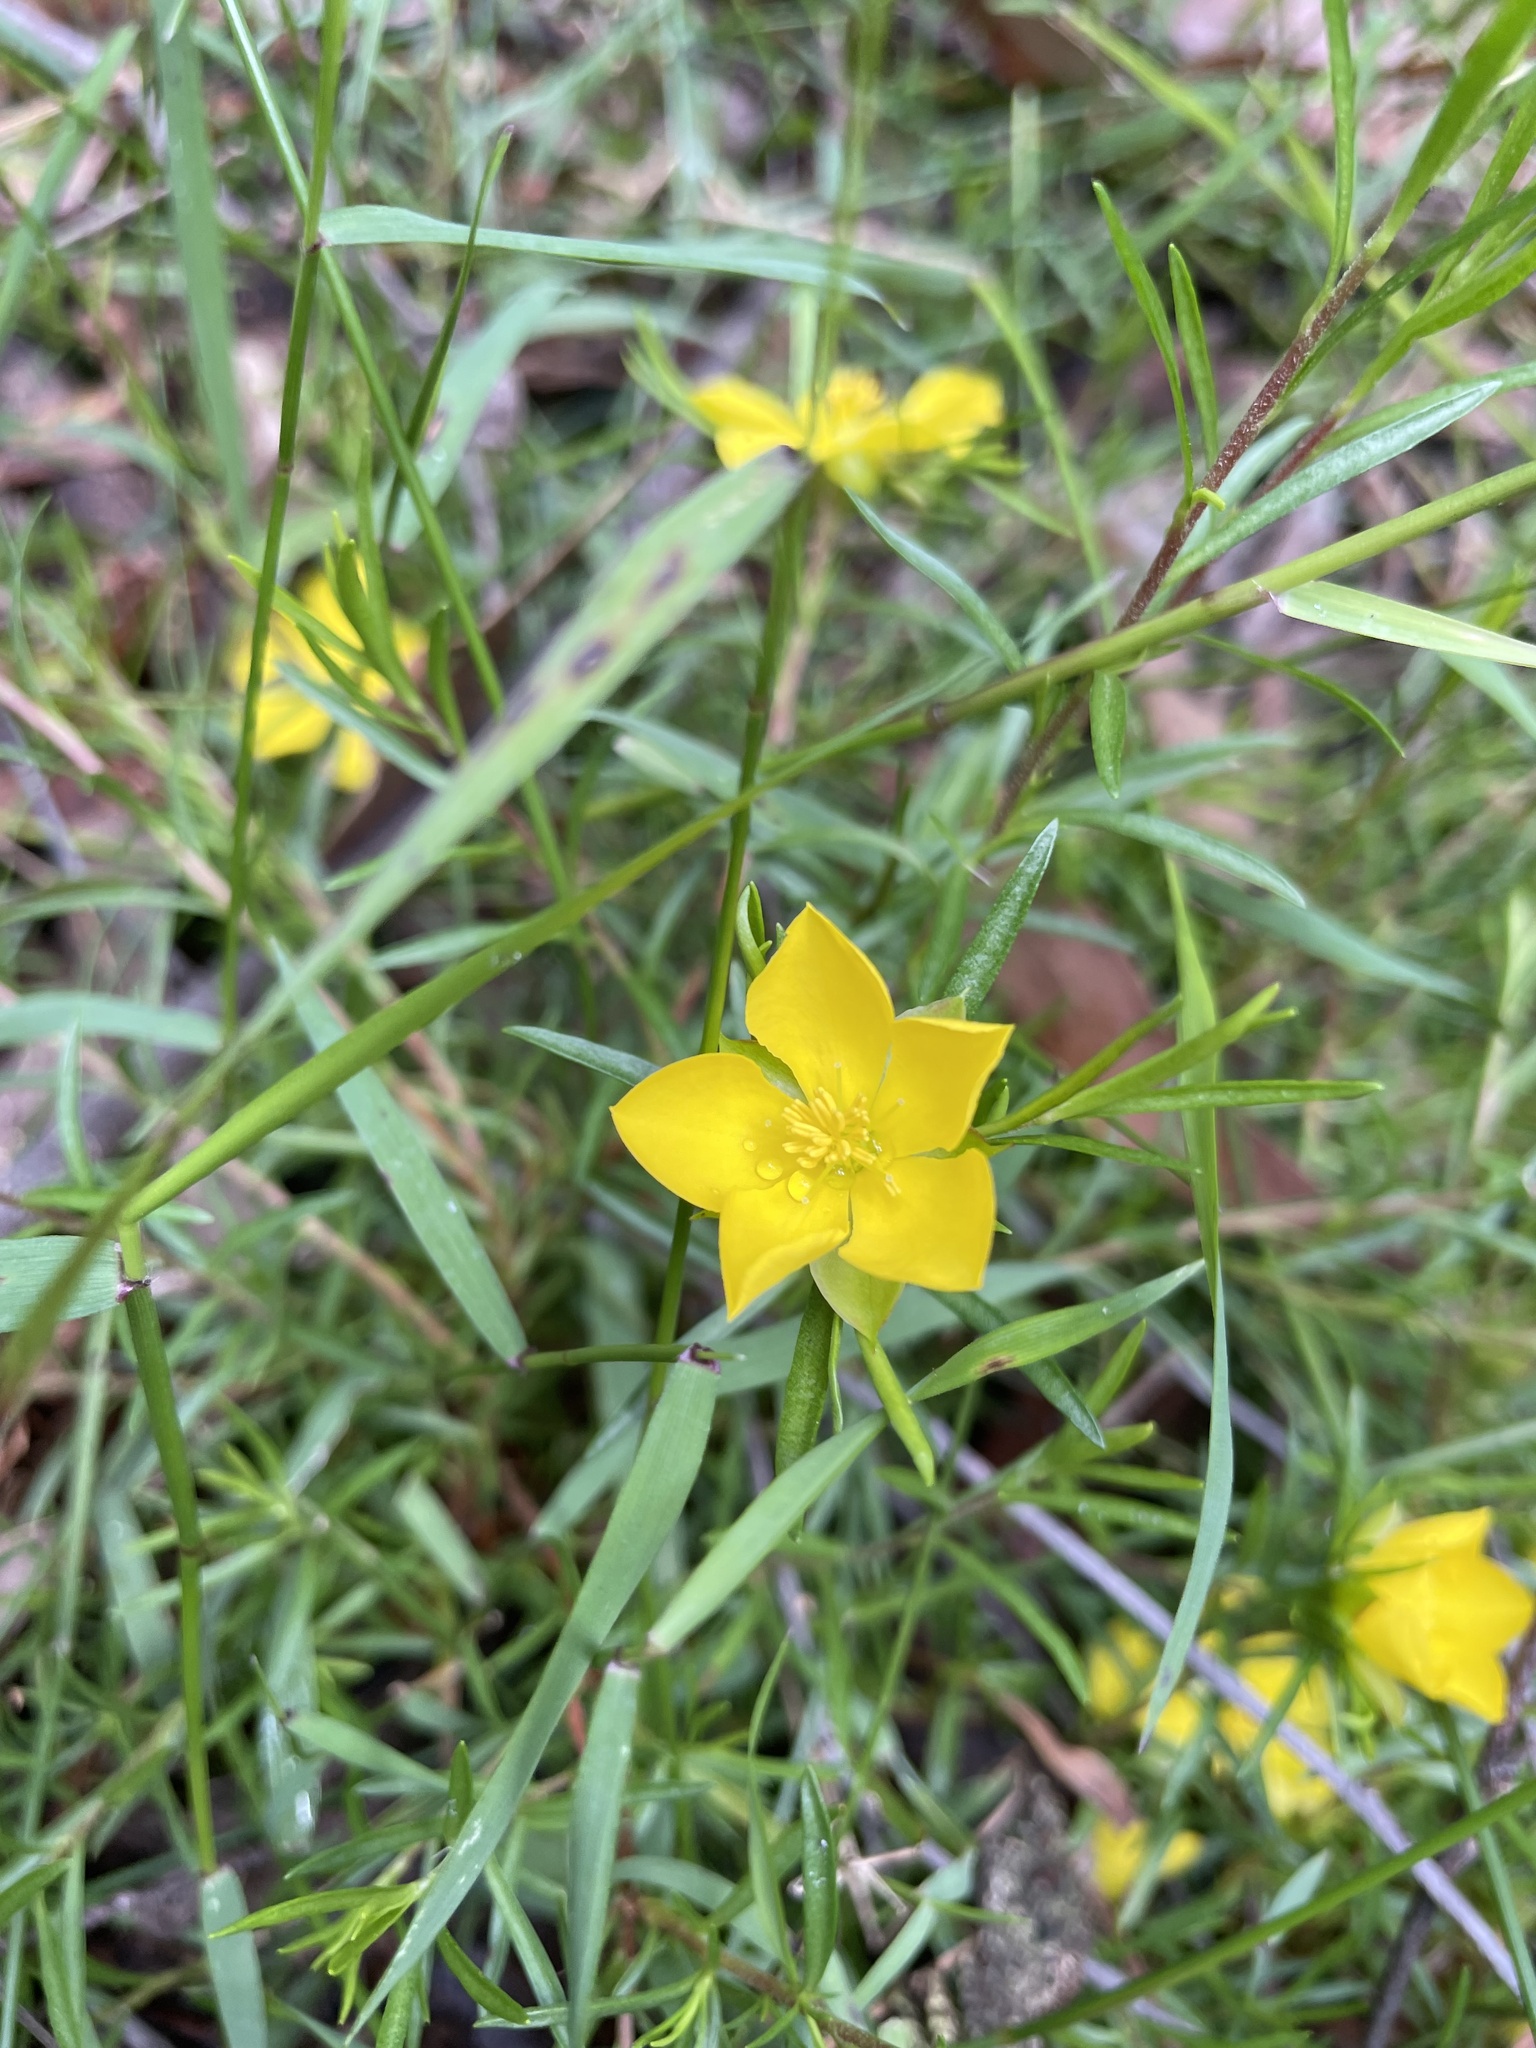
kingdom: Plantae
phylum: Tracheophyta
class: Magnoliopsida
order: Dilleniales
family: Dilleniaceae
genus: Hibbertia
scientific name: Hibbertia procumbens
